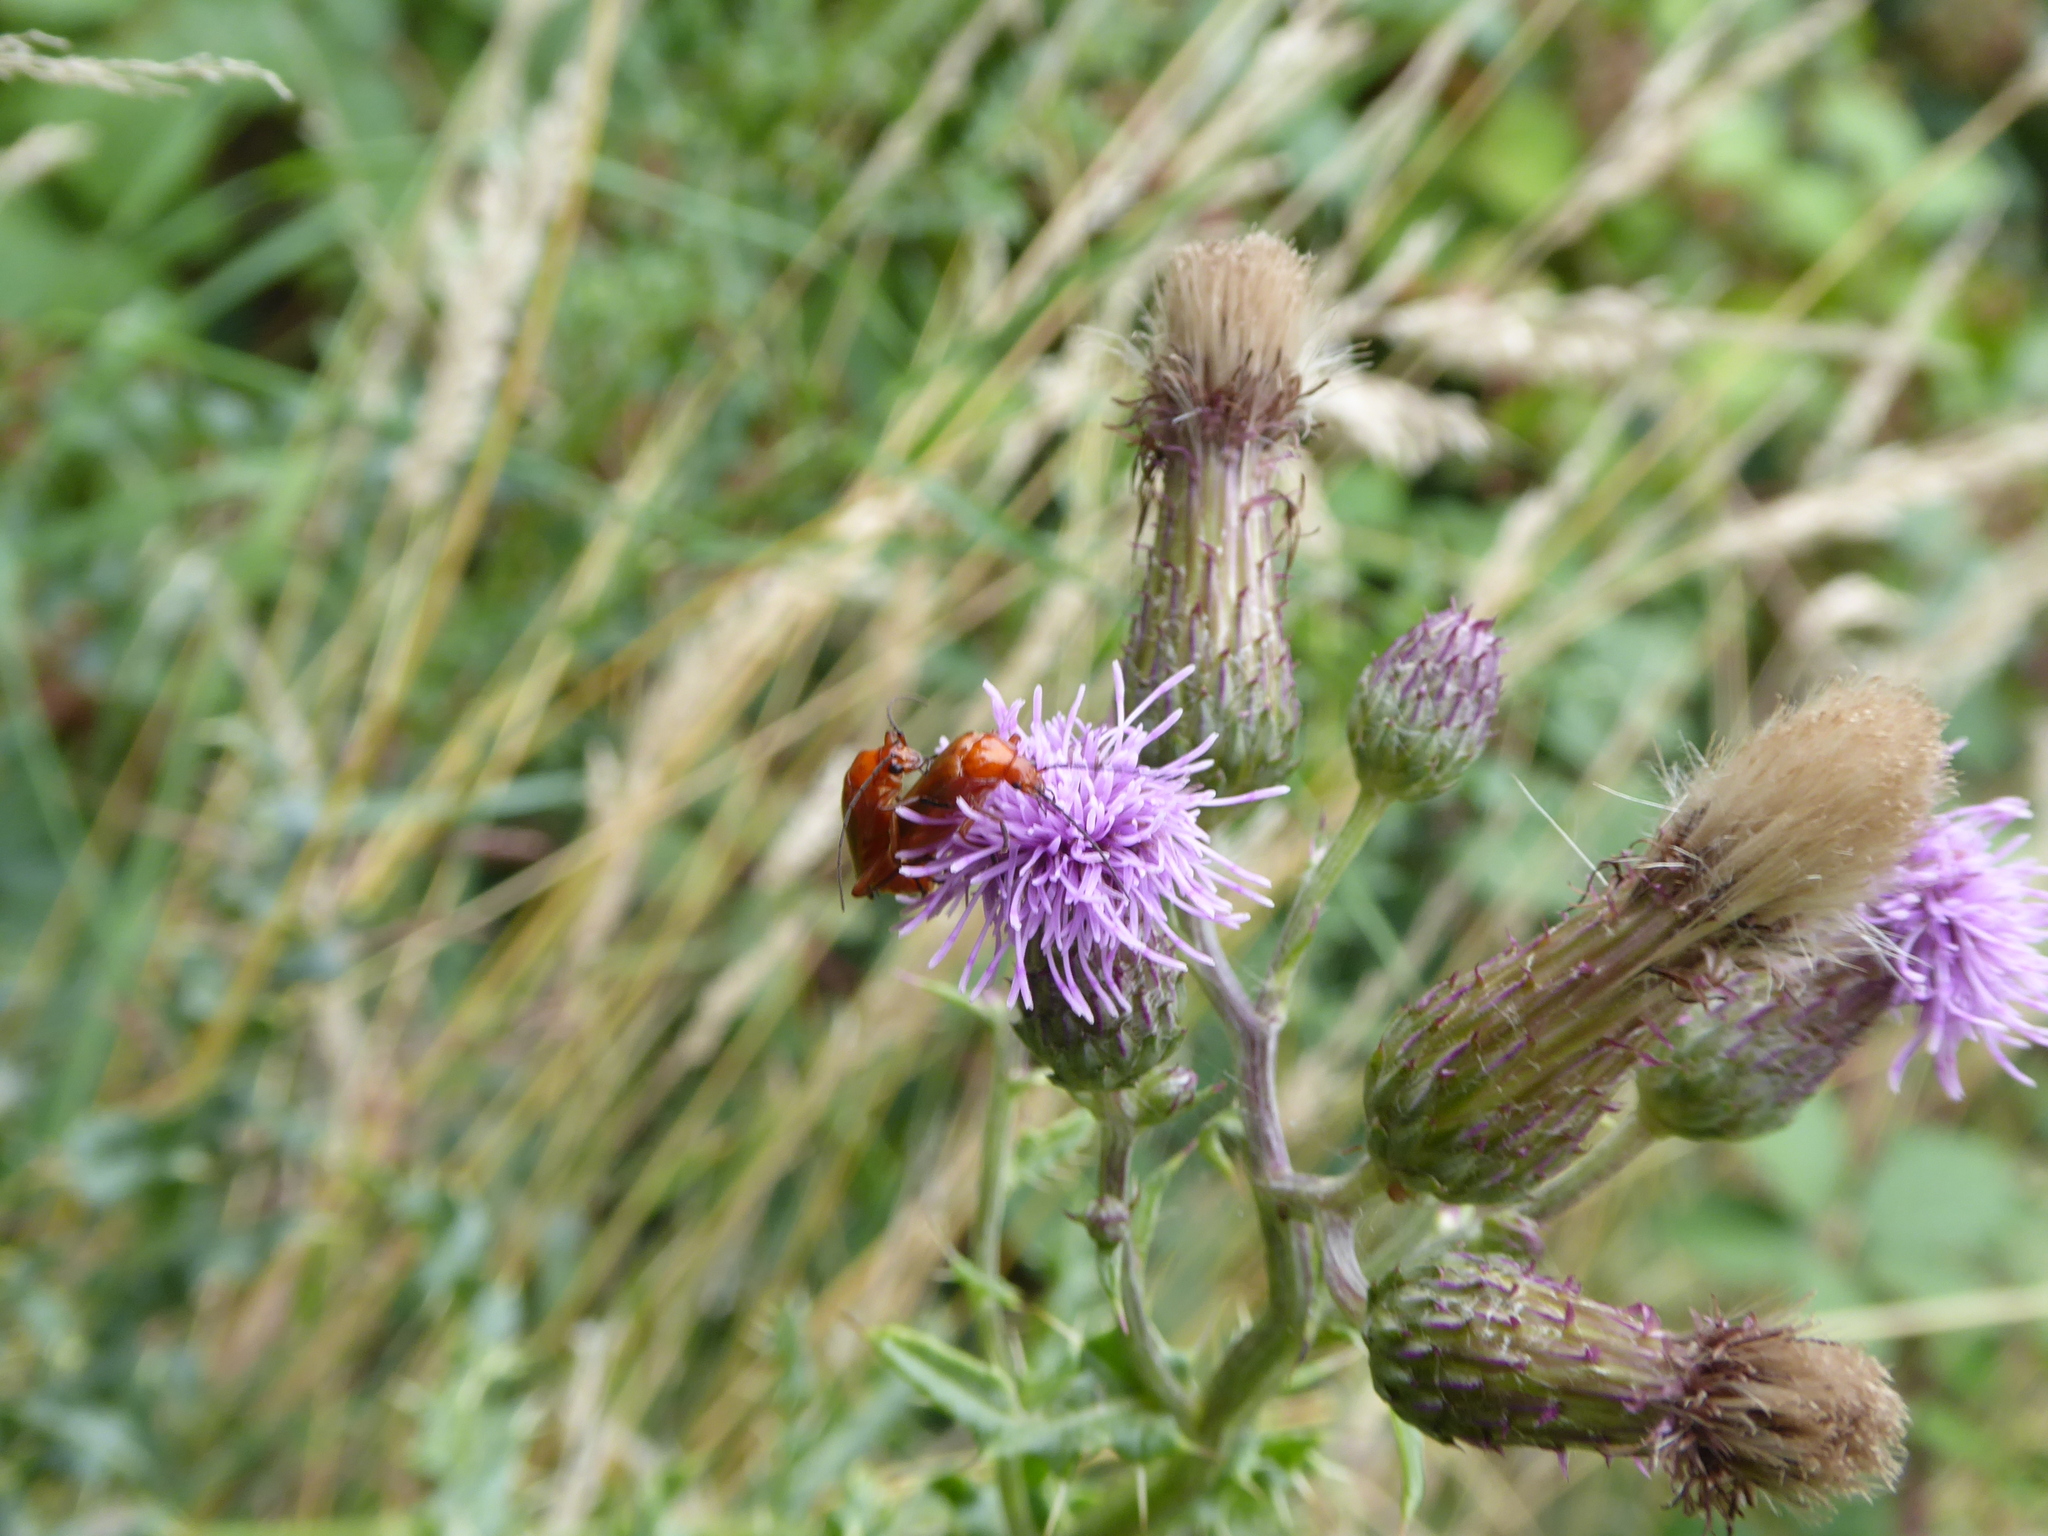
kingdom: Animalia
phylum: Arthropoda
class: Insecta
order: Coleoptera
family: Cantharidae
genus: Rhagonycha
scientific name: Rhagonycha fulva
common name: Common red soldier beetle
